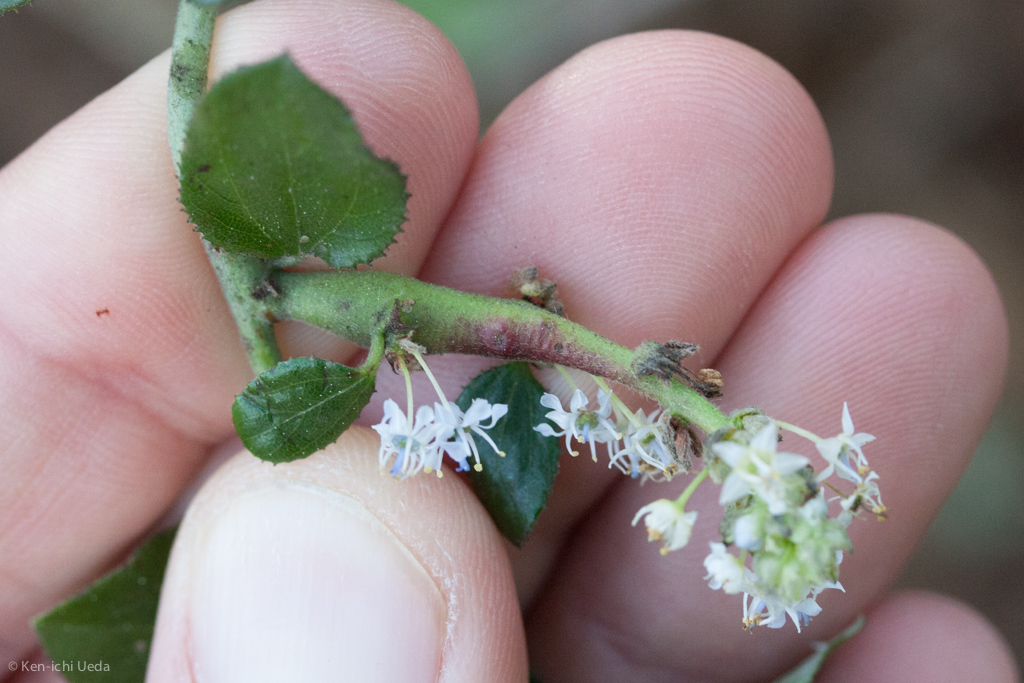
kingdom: Animalia
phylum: Arthropoda
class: Insecta
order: Lepidoptera
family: Cosmopterigidae
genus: Periploca
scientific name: Periploca ceanothiella
